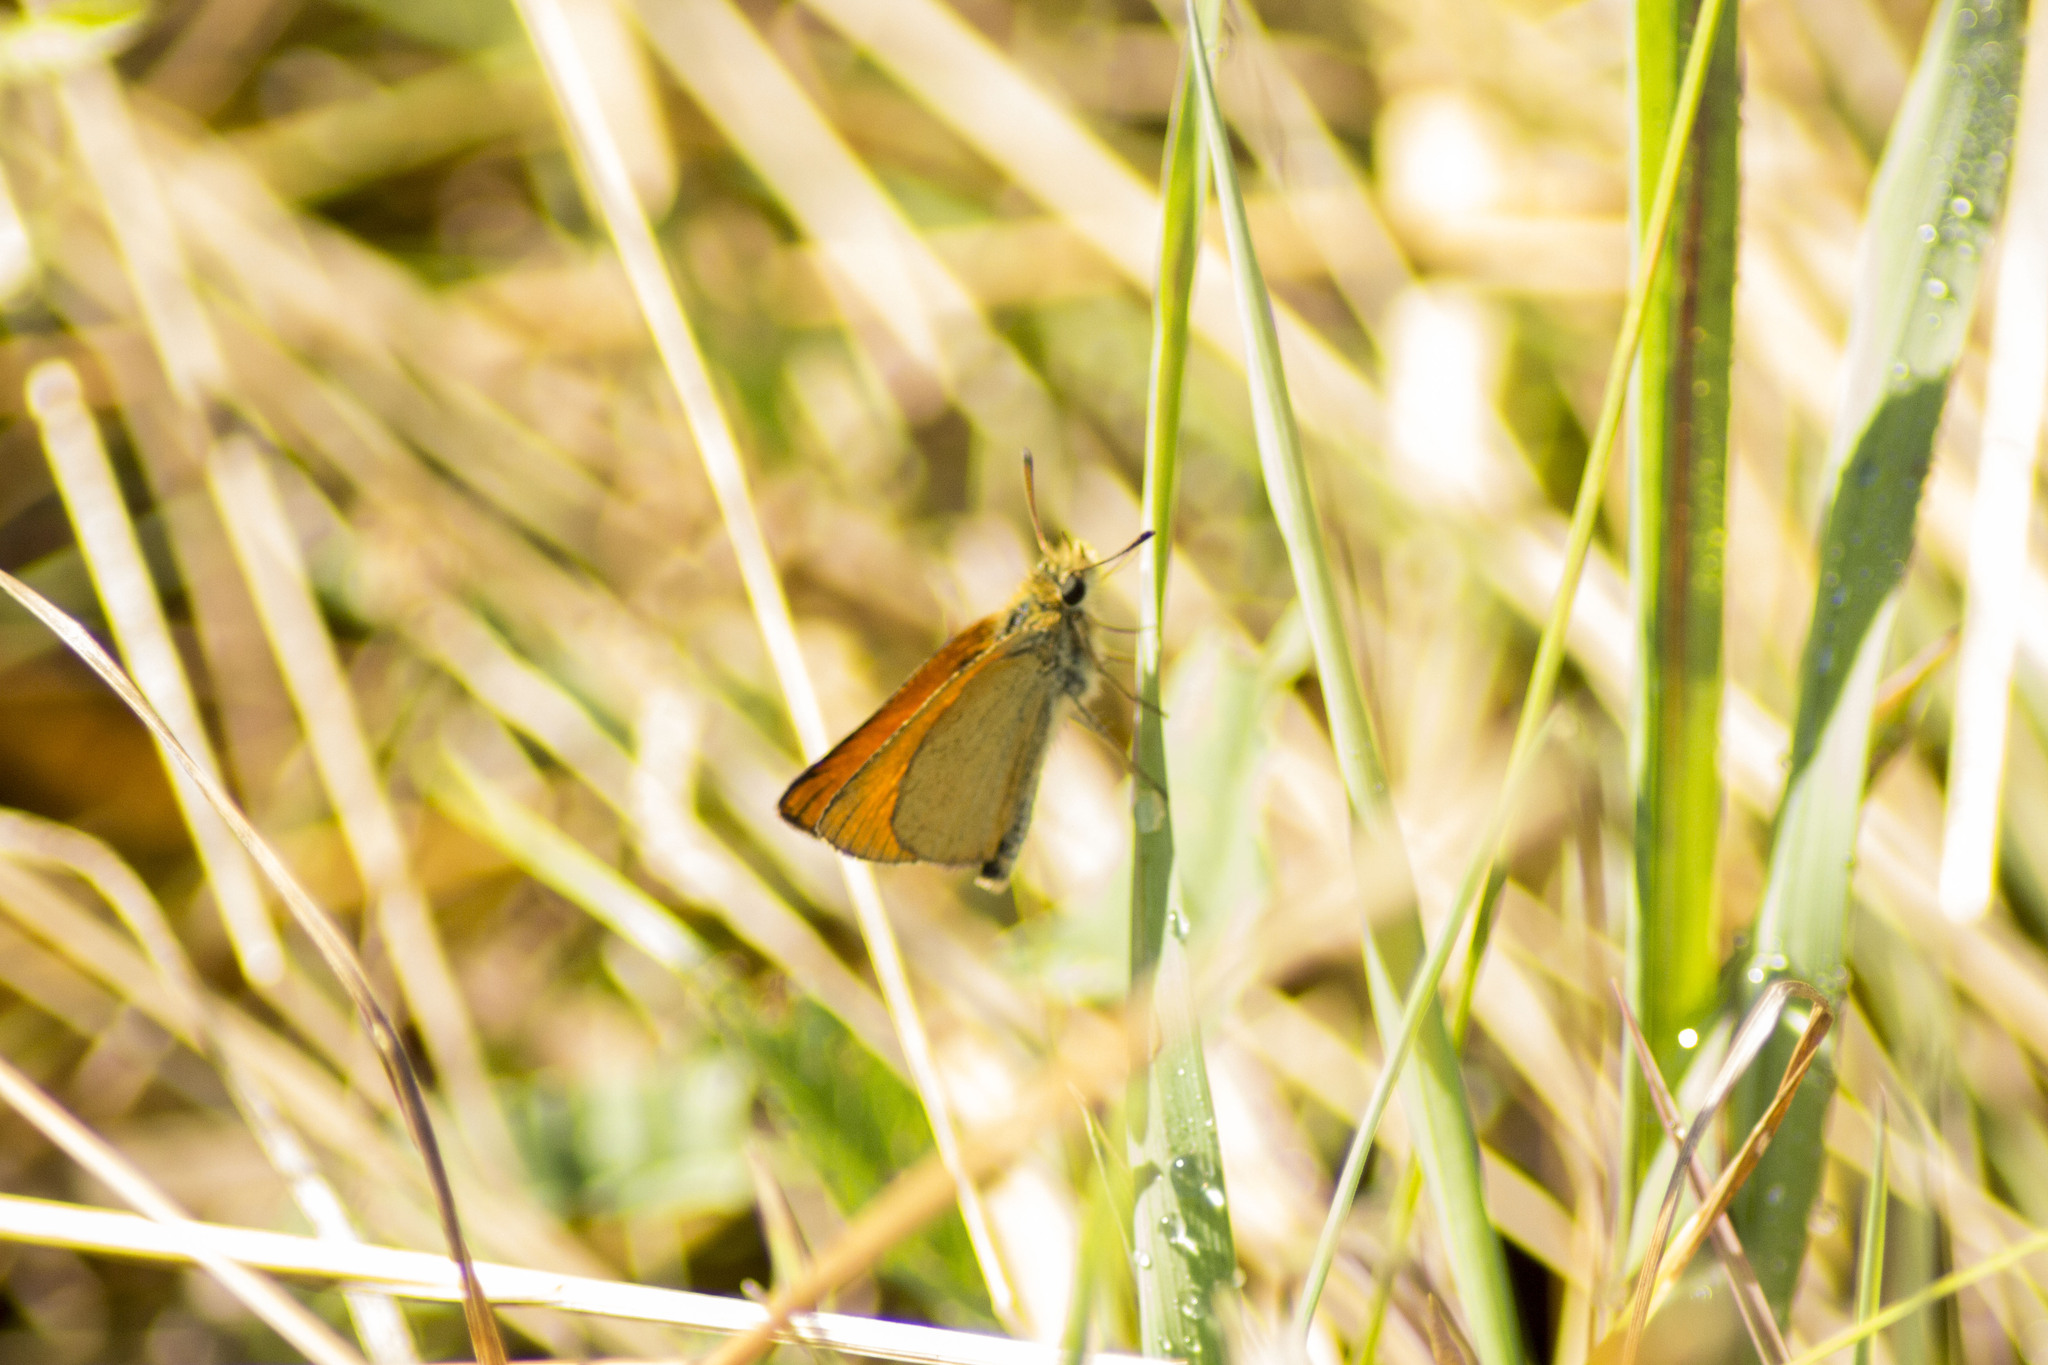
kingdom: Animalia
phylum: Arthropoda
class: Insecta
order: Lepidoptera
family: Hesperiidae
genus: Thymelicus
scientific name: Thymelicus lineola
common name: Essex skipper
